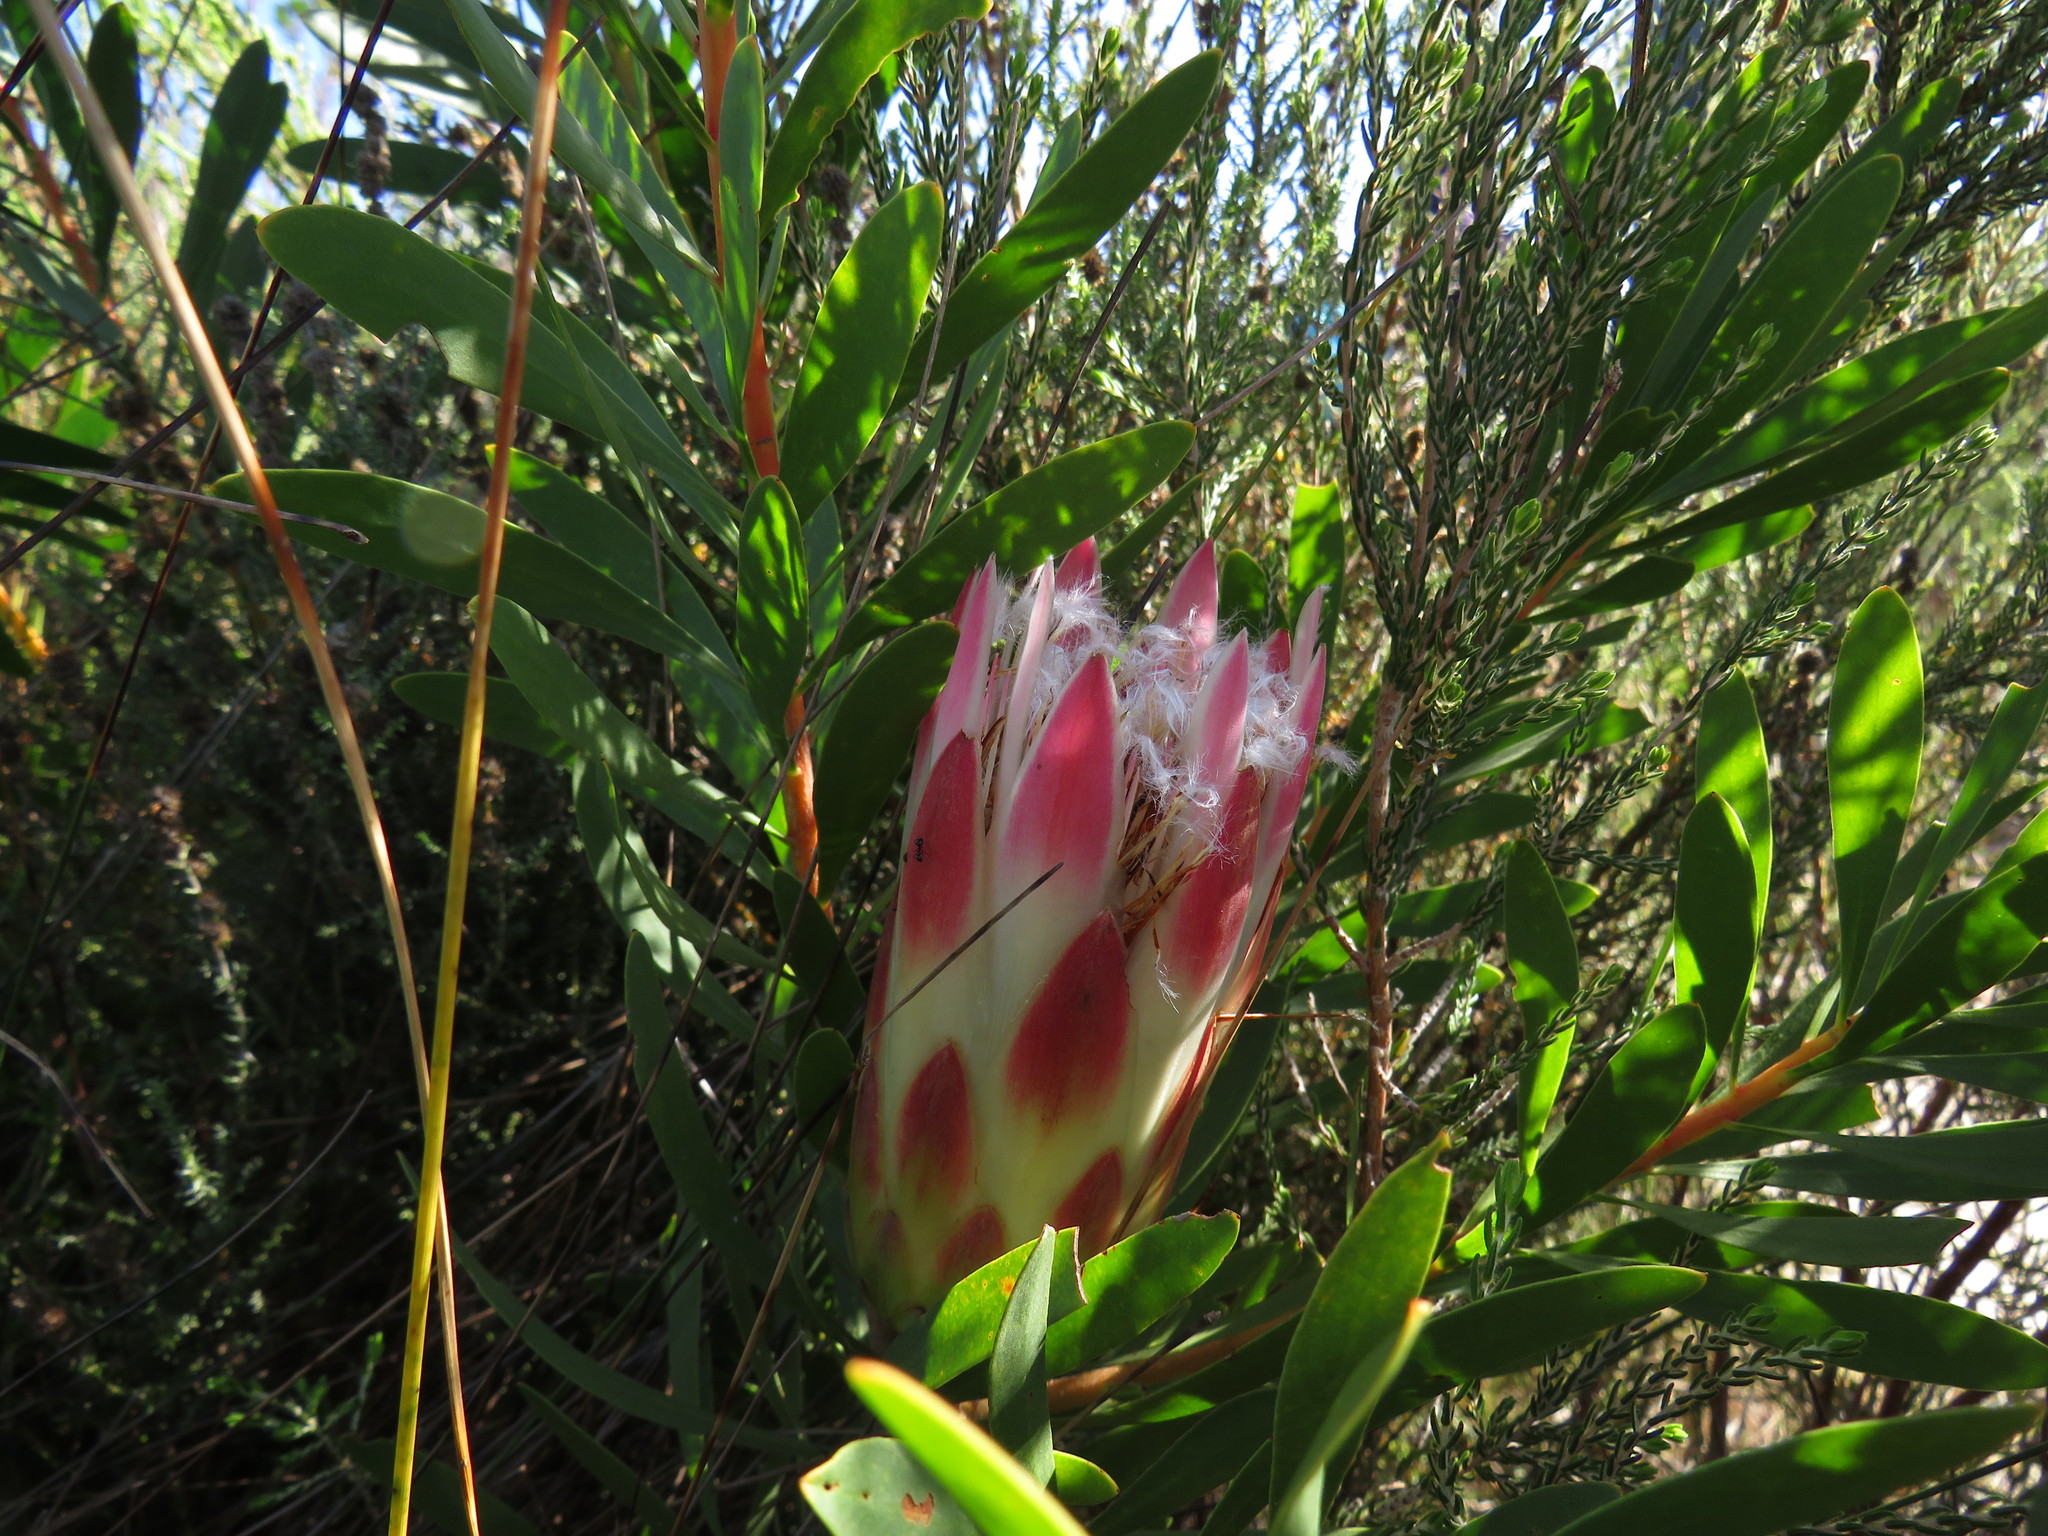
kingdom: Plantae
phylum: Tracheophyta
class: Magnoliopsida
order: Proteales
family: Proteaceae
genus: Protea
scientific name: Protea repens
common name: Sugarbush
